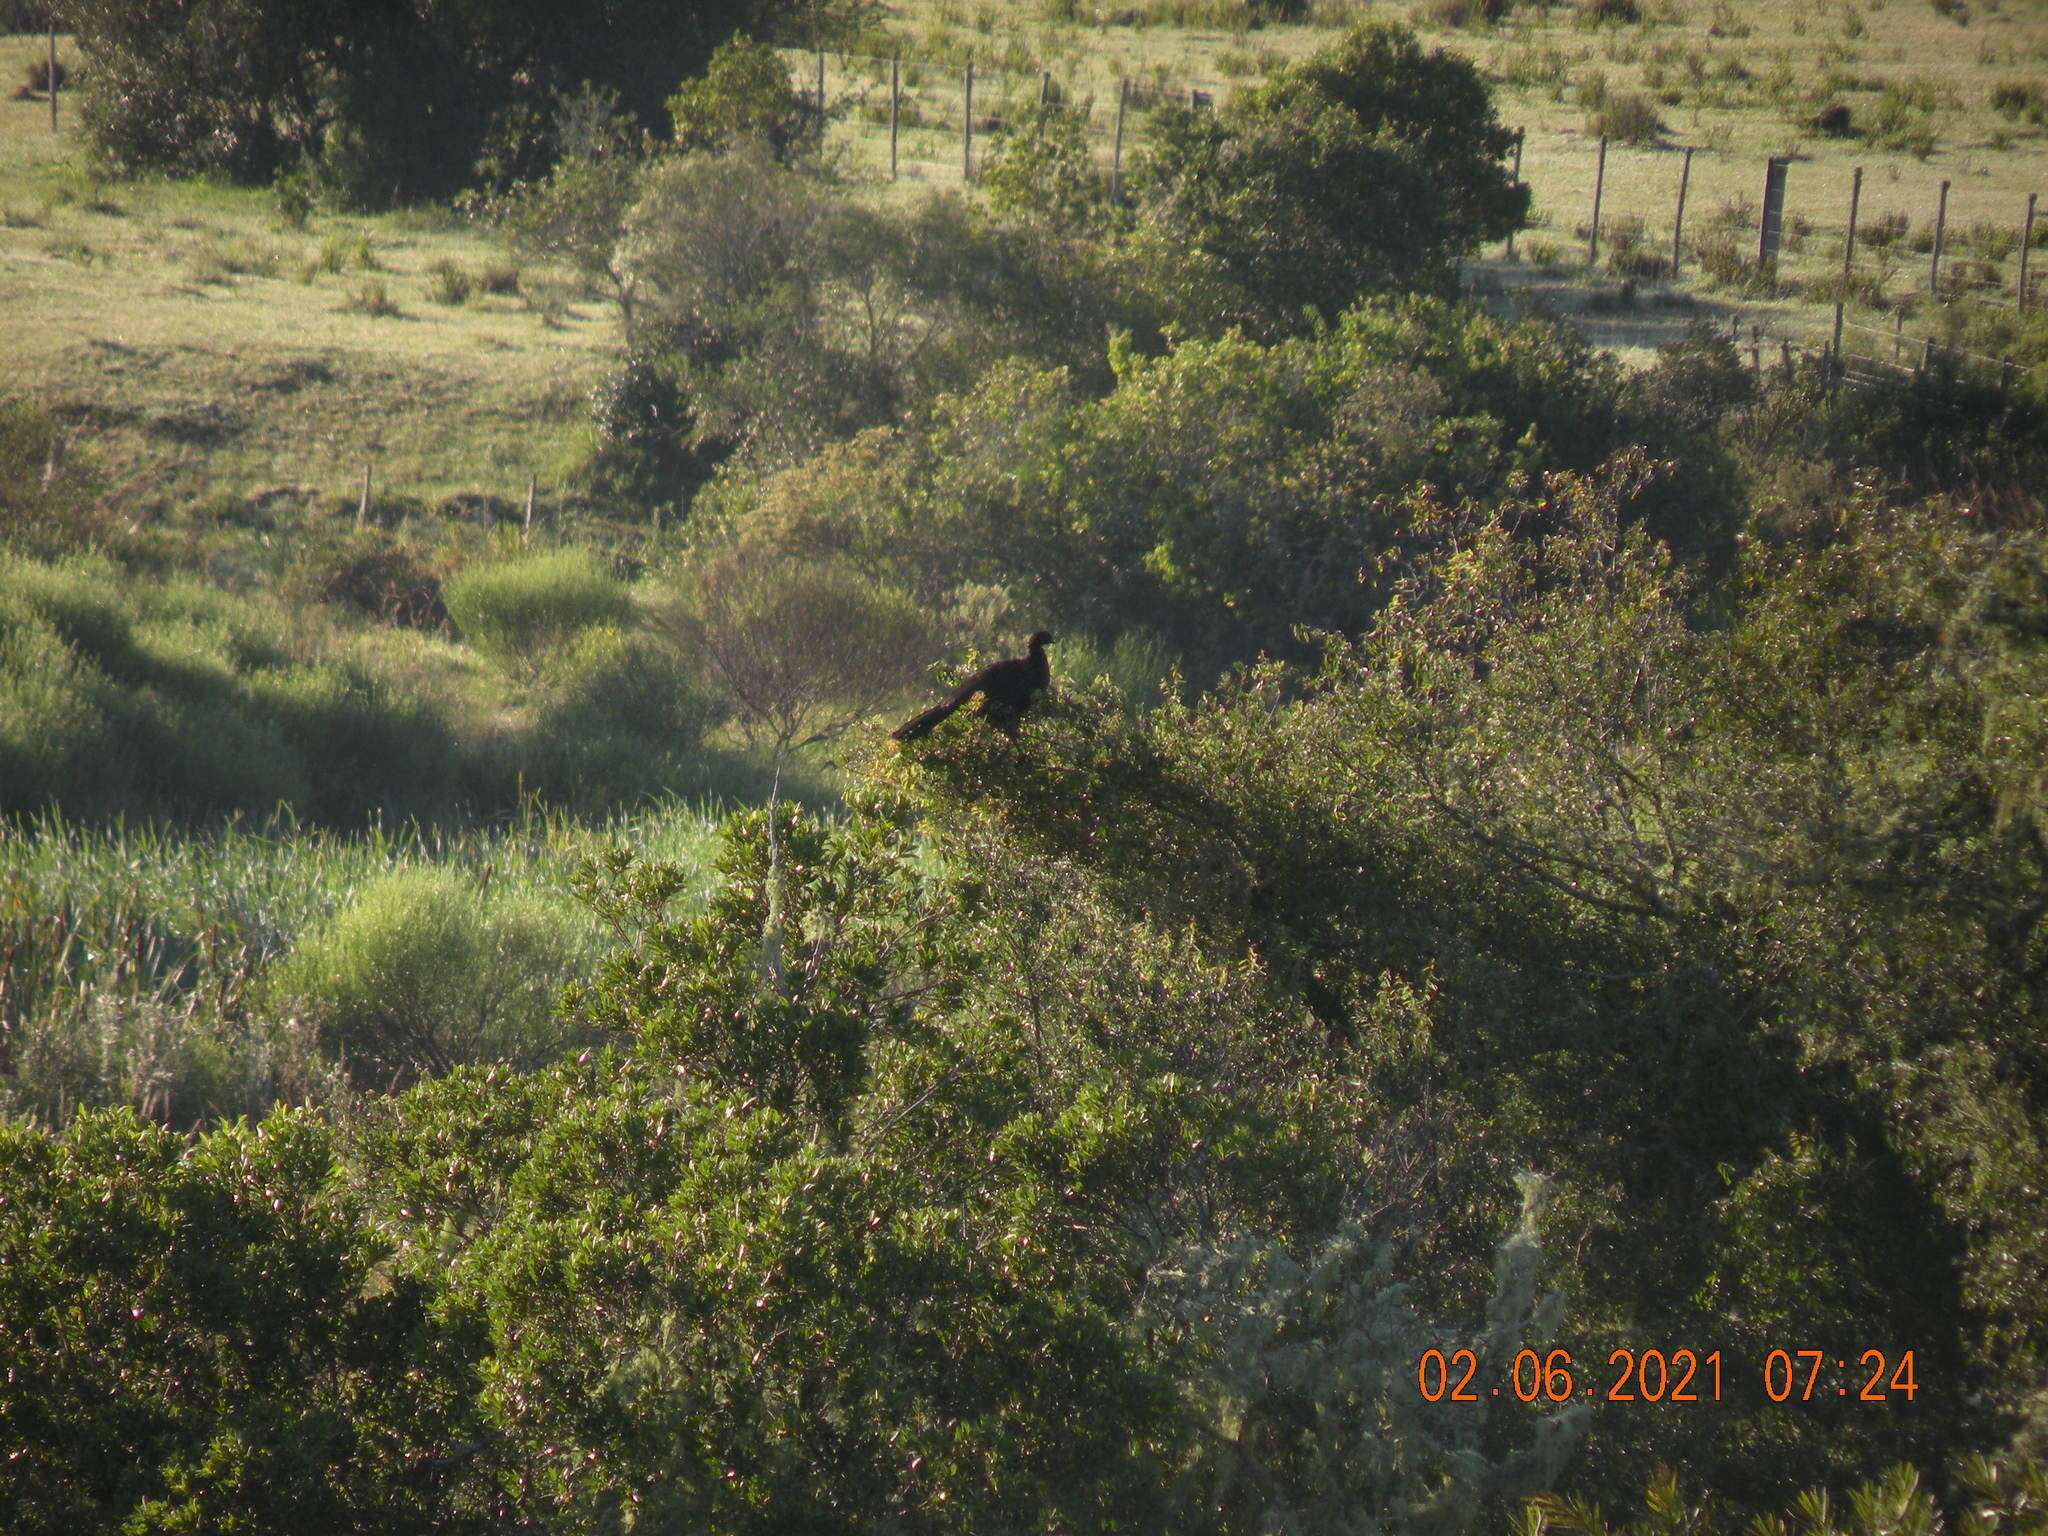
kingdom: Animalia
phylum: Chordata
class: Aves
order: Galliformes
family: Cracidae
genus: Penelope
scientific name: Penelope obscura
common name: Dusky-legged guan
